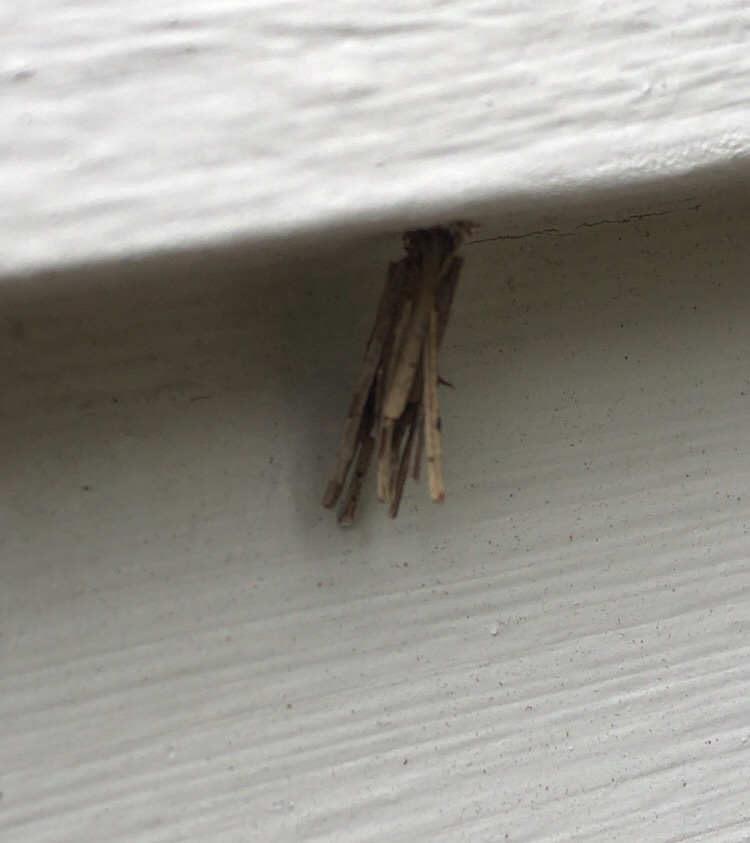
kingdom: Animalia
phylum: Arthropoda
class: Insecta
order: Lepidoptera
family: Psychidae
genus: Psyche
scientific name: Psyche casta
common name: Common sweep
